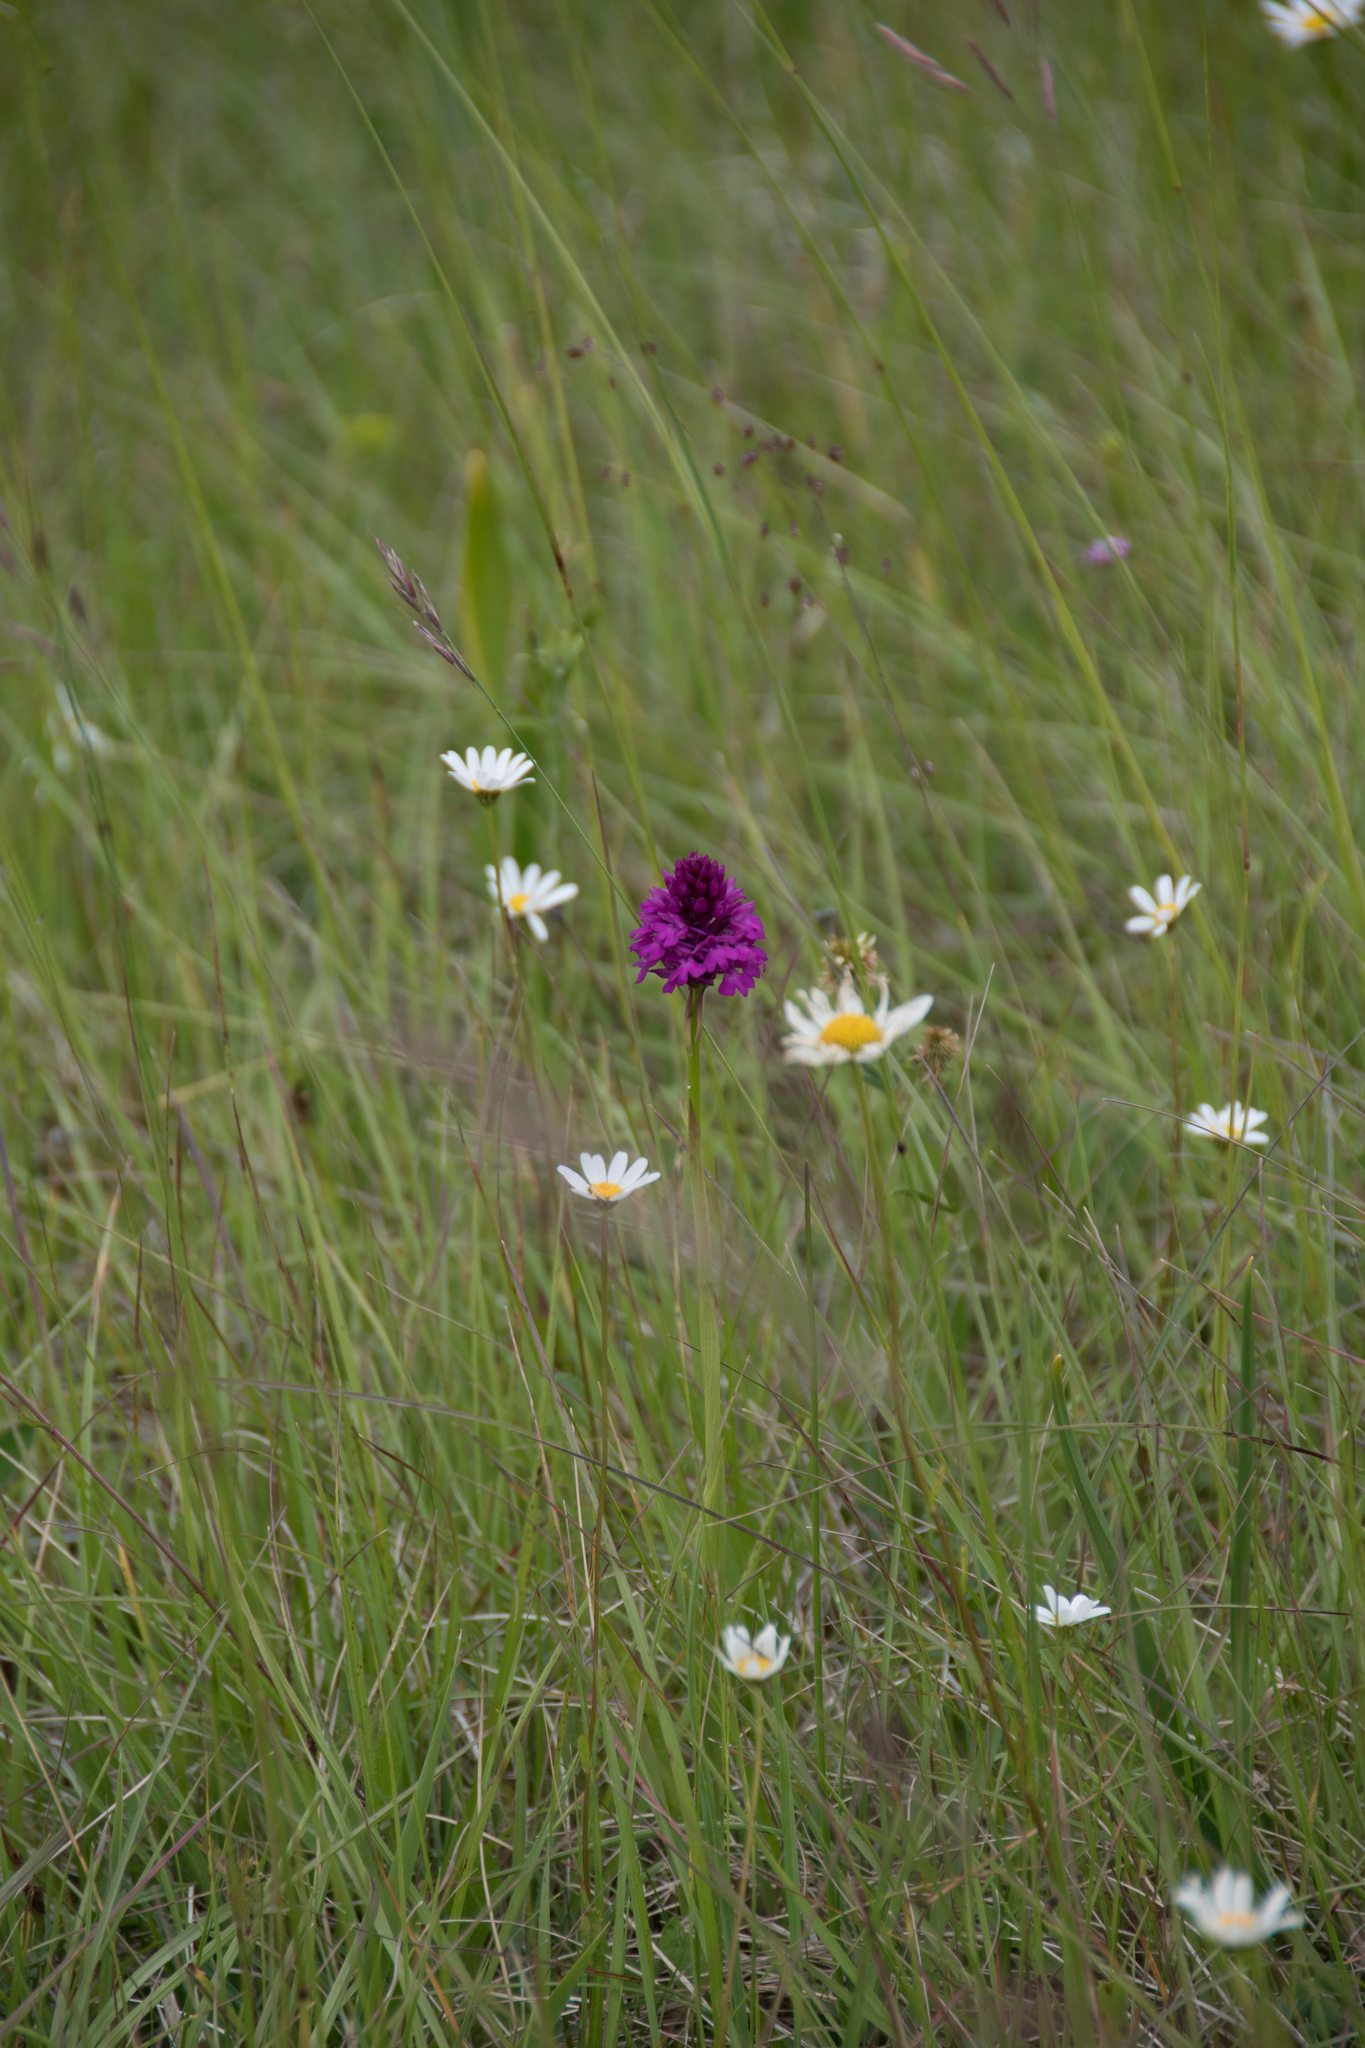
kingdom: Plantae
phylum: Tracheophyta
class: Liliopsida
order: Asparagales
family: Orchidaceae
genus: Anacamptis
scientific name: Anacamptis pyramidalis
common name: Pyramidal orchid
